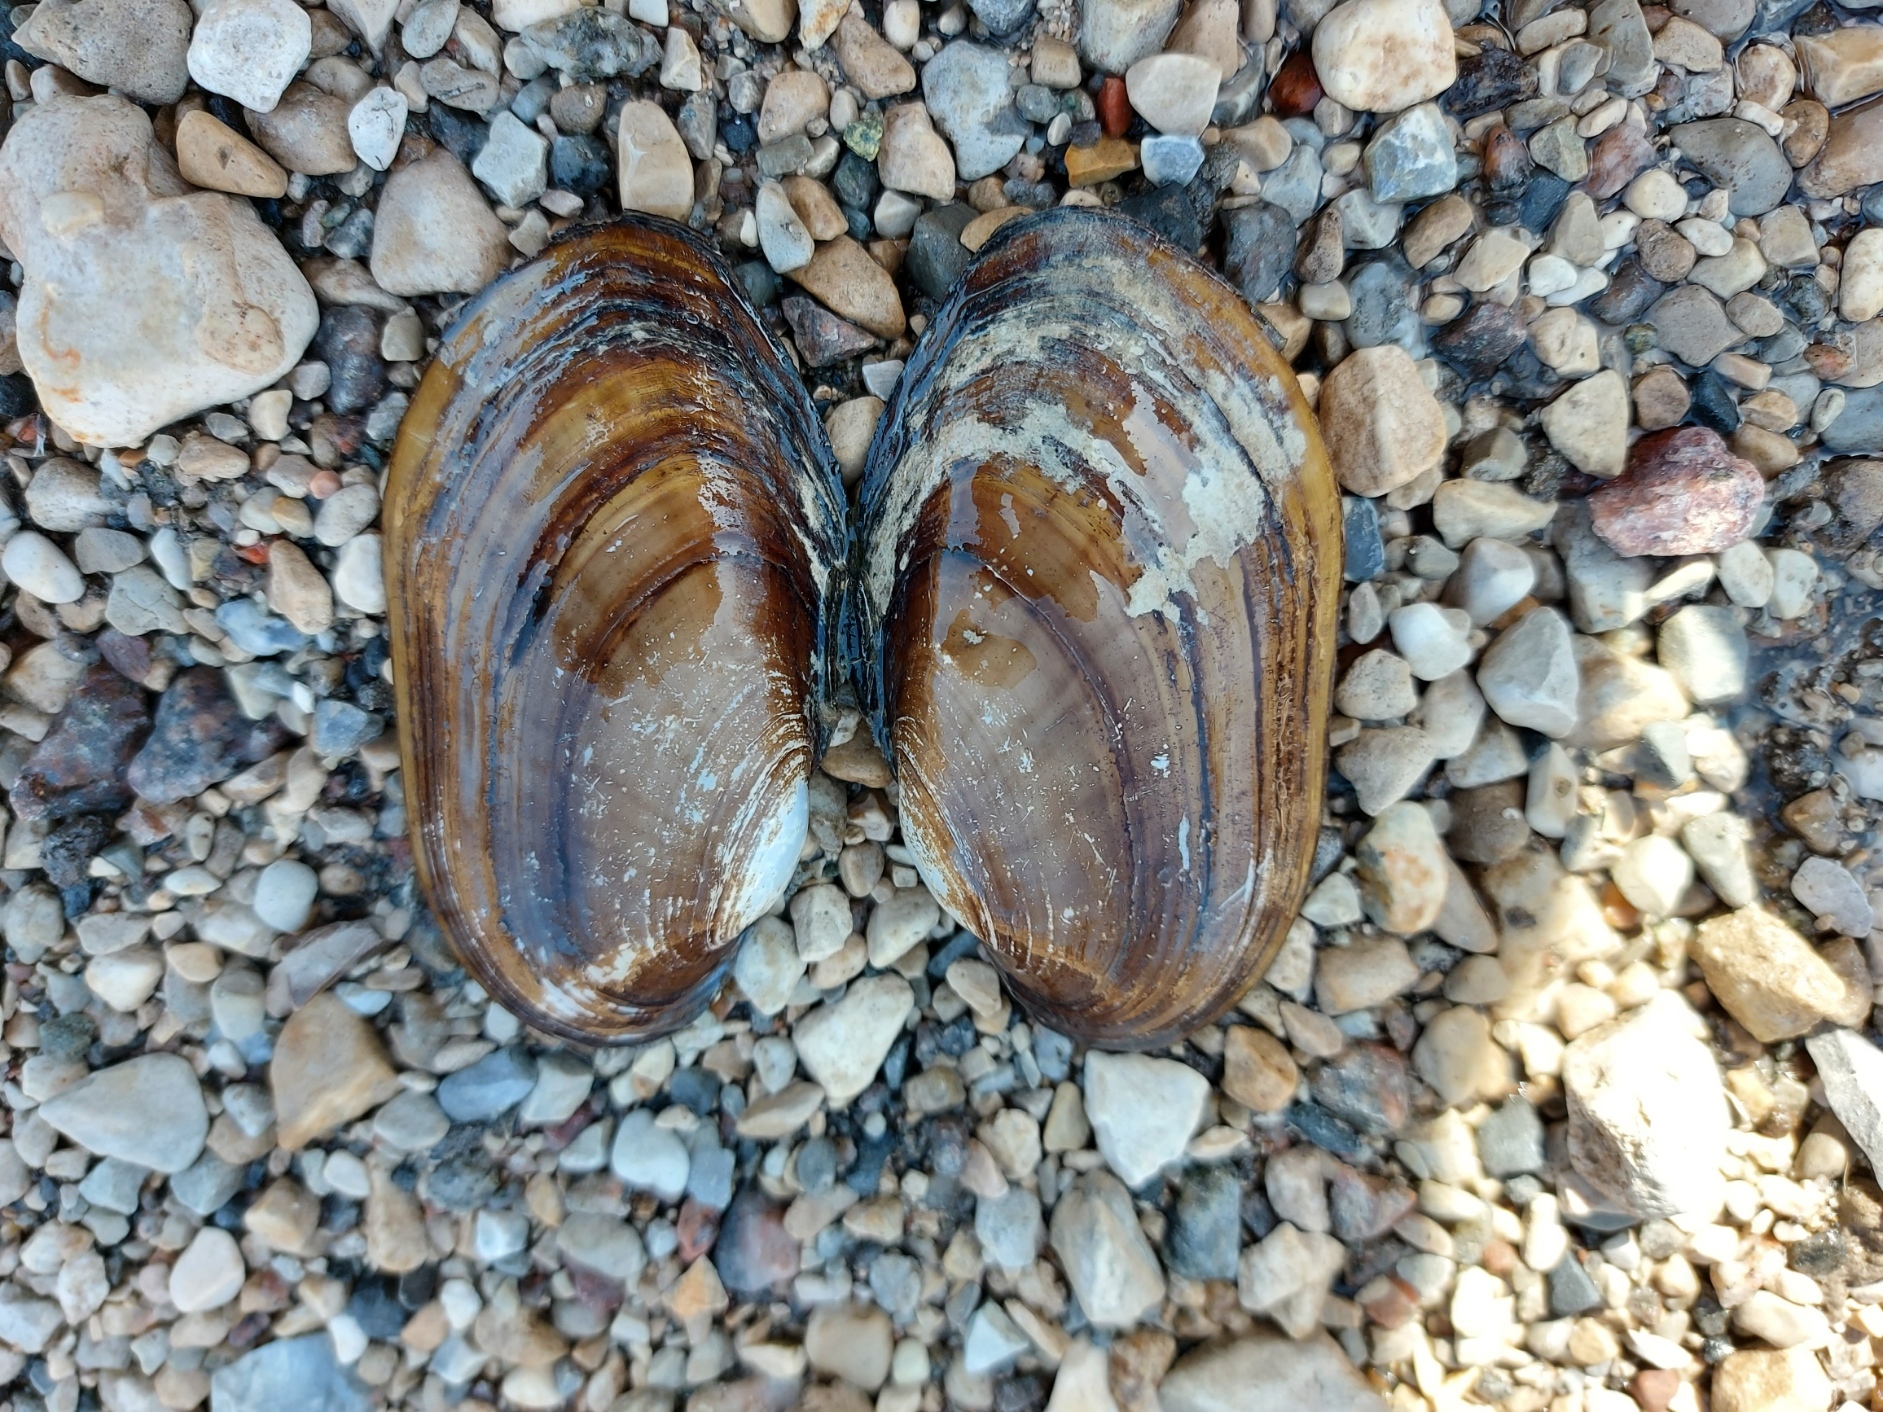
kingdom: Animalia
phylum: Mollusca
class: Bivalvia
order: Unionida
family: Unionidae
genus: Lampsilis
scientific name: Lampsilis siliquoidea
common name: Fatmucket
